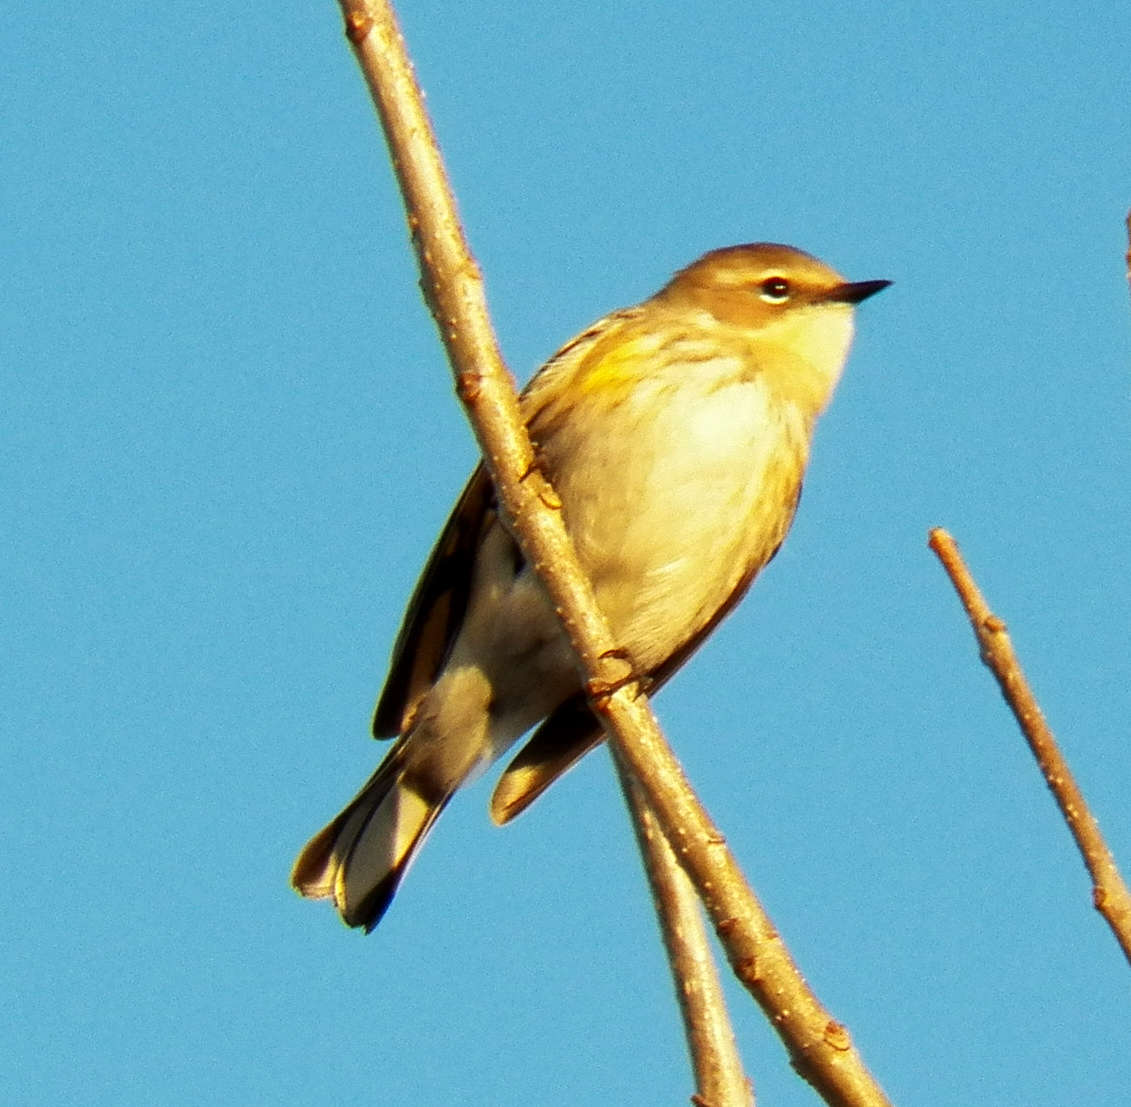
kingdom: Animalia
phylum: Chordata
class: Aves
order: Passeriformes
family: Parulidae
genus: Setophaga
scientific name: Setophaga coronata
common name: Myrtle warbler
